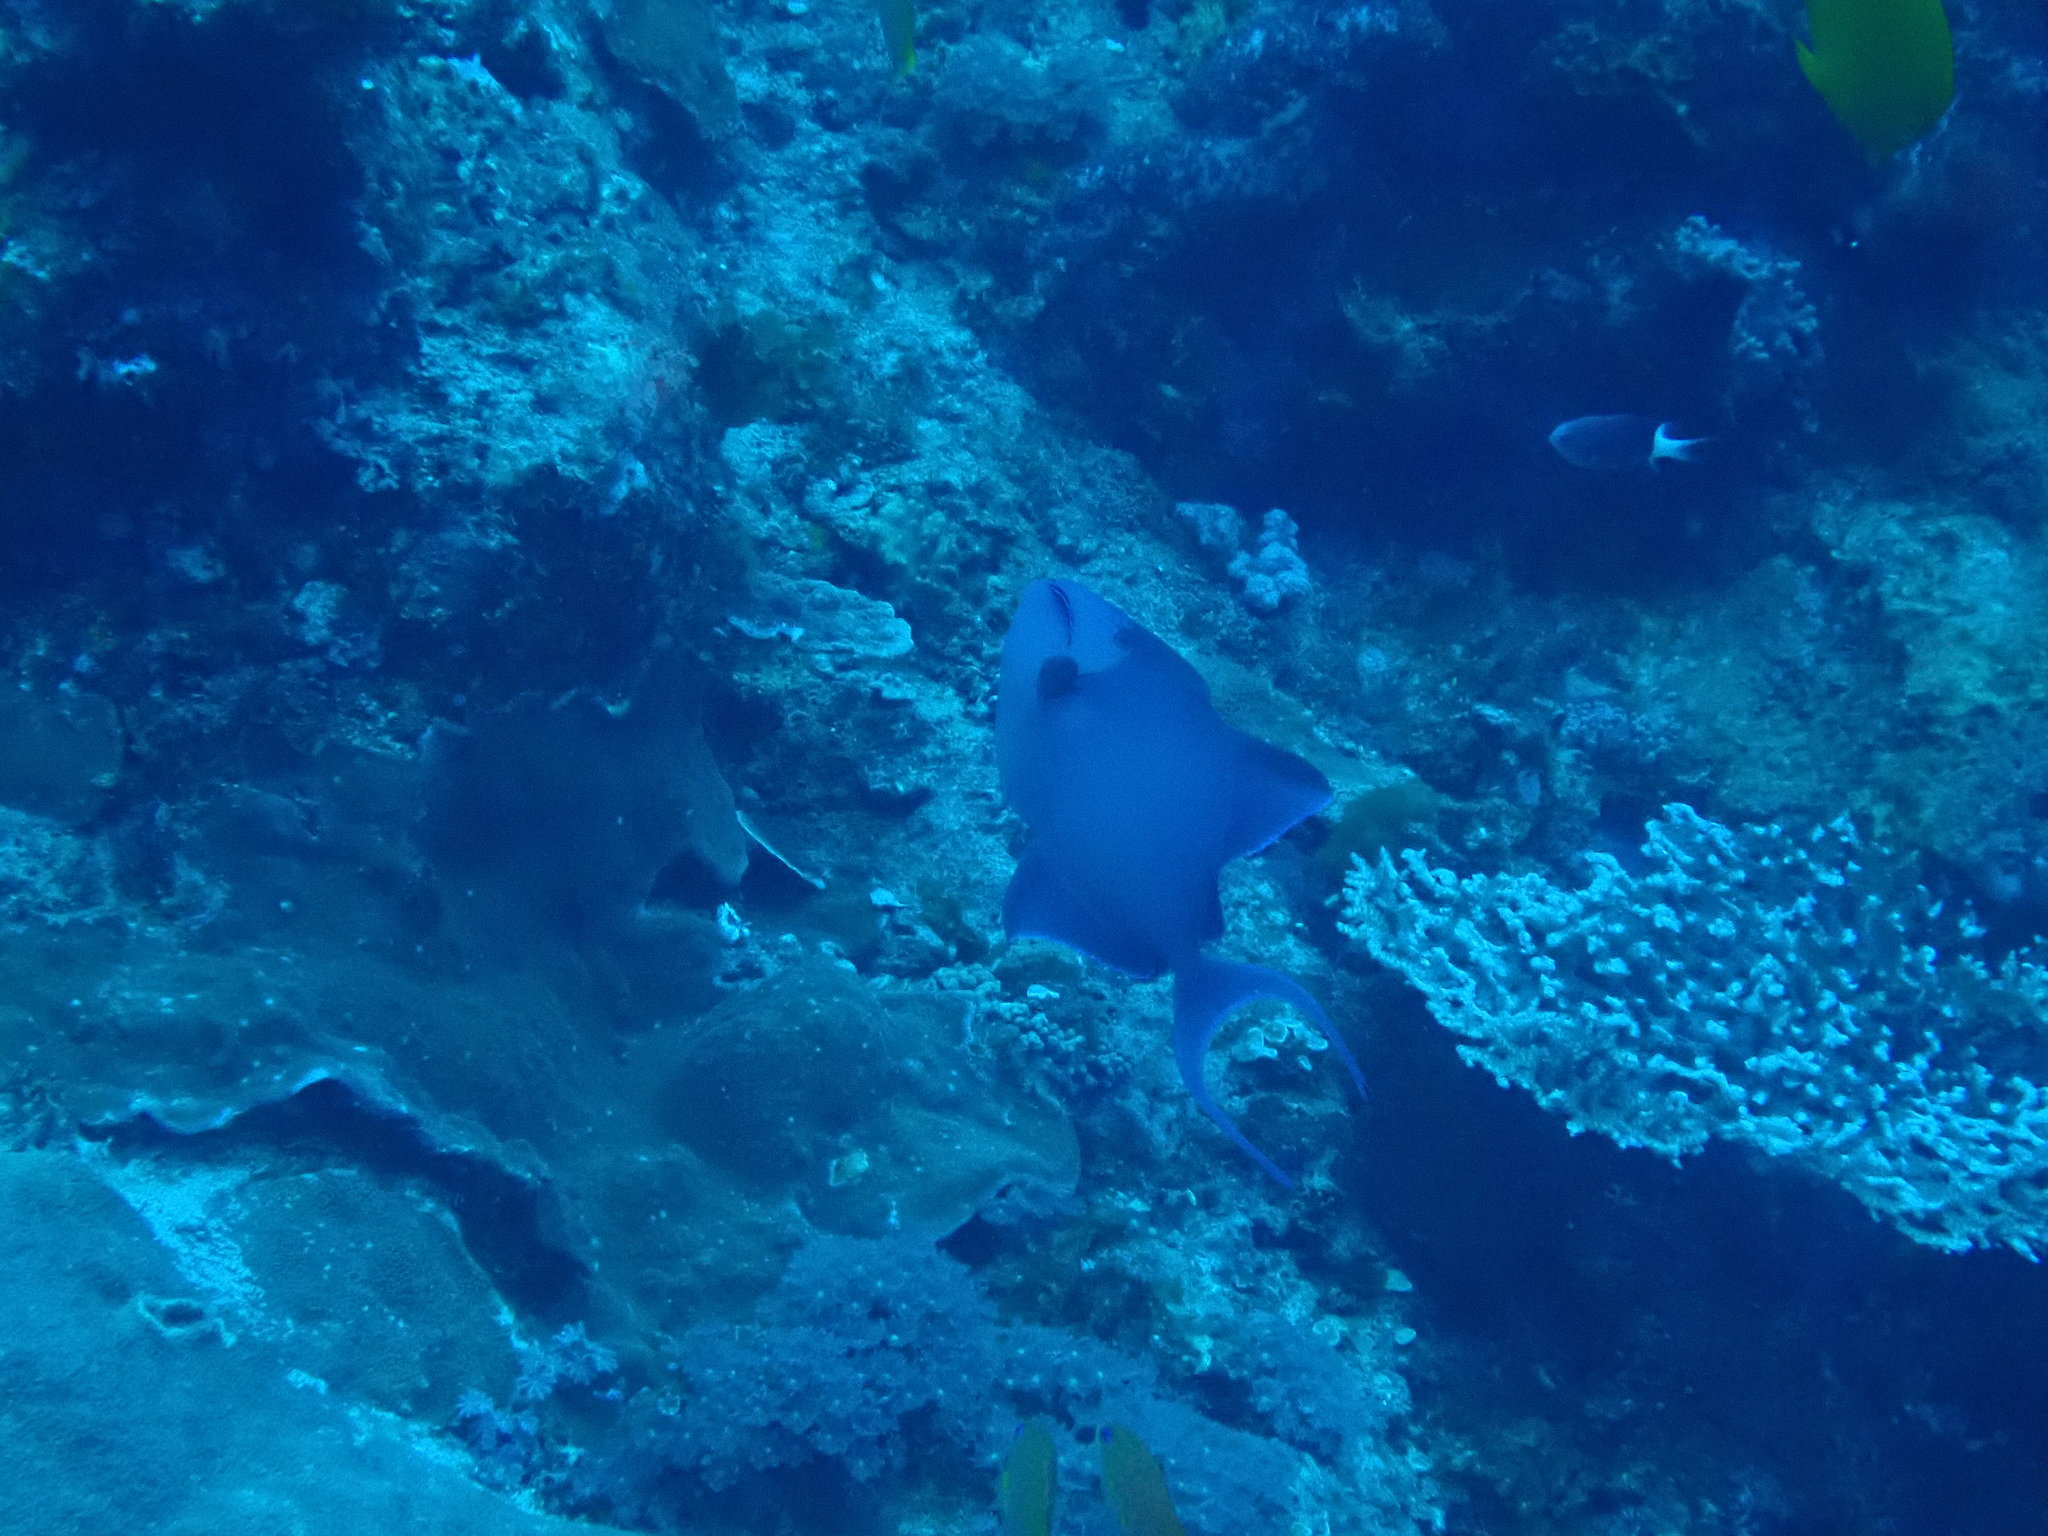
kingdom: Animalia
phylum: Chordata
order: Tetraodontiformes
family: Balistidae
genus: Odonus
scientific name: Odonus niger
